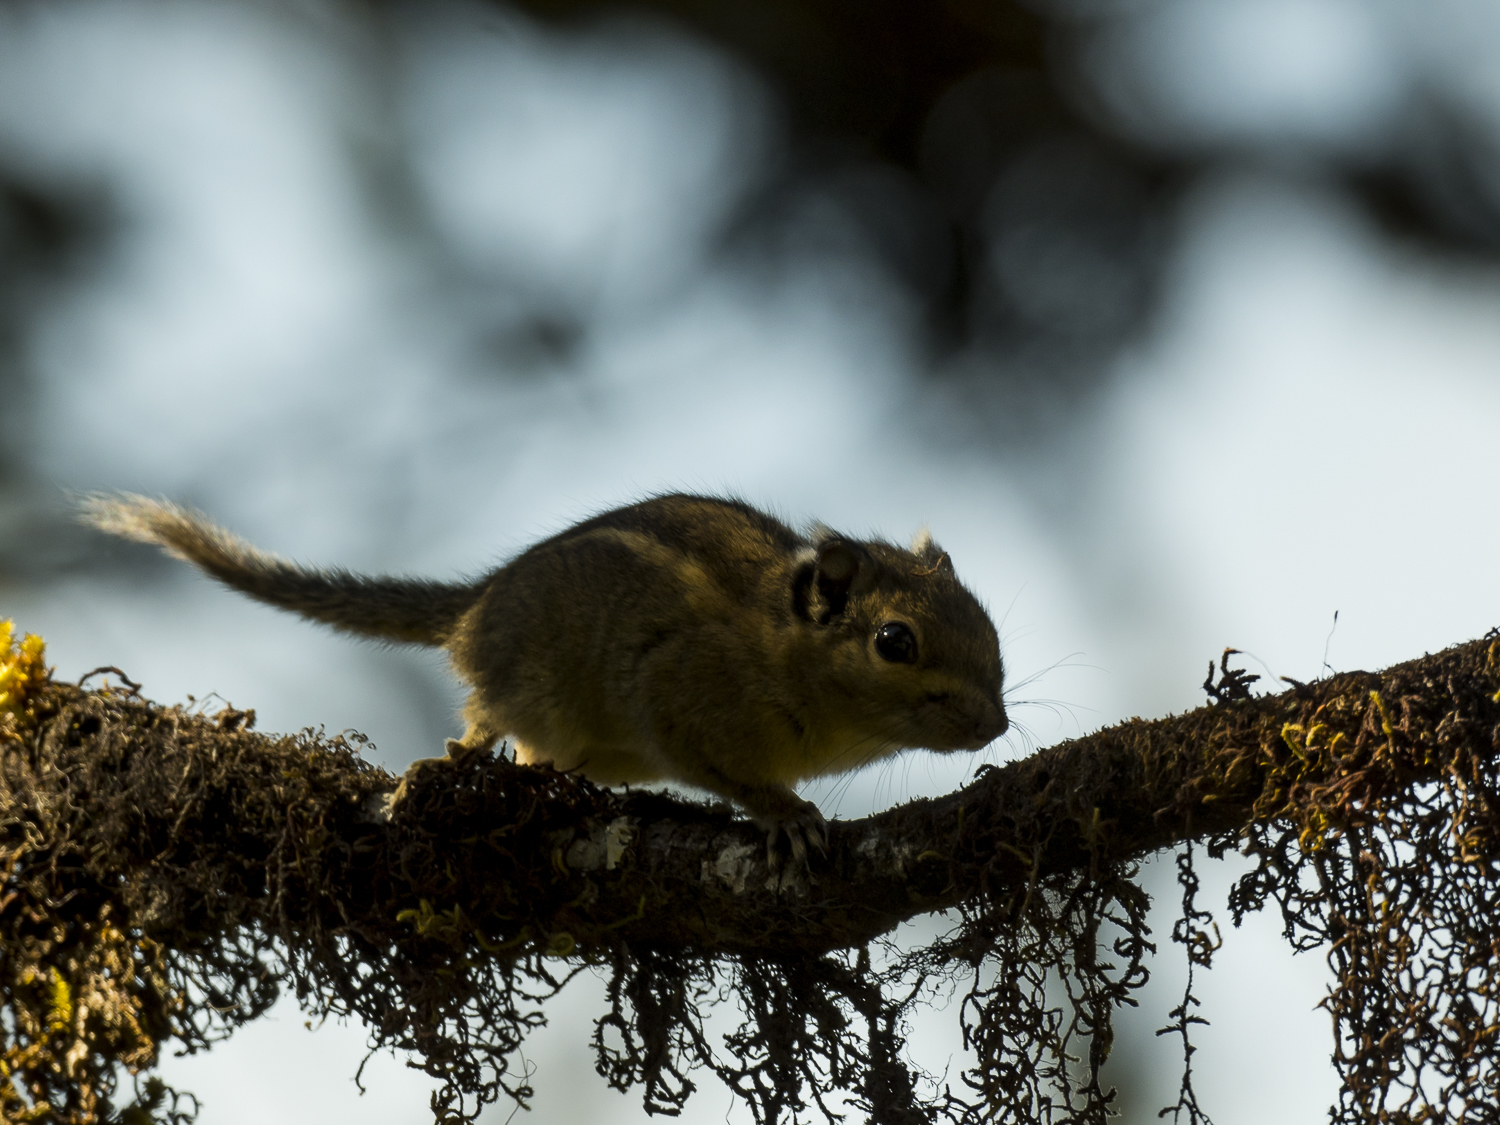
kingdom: Animalia
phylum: Chordata
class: Mammalia
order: Rodentia
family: Sciuridae
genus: Tamiops
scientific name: Tamiops mcclellandii
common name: Himalayan striped squirrel
